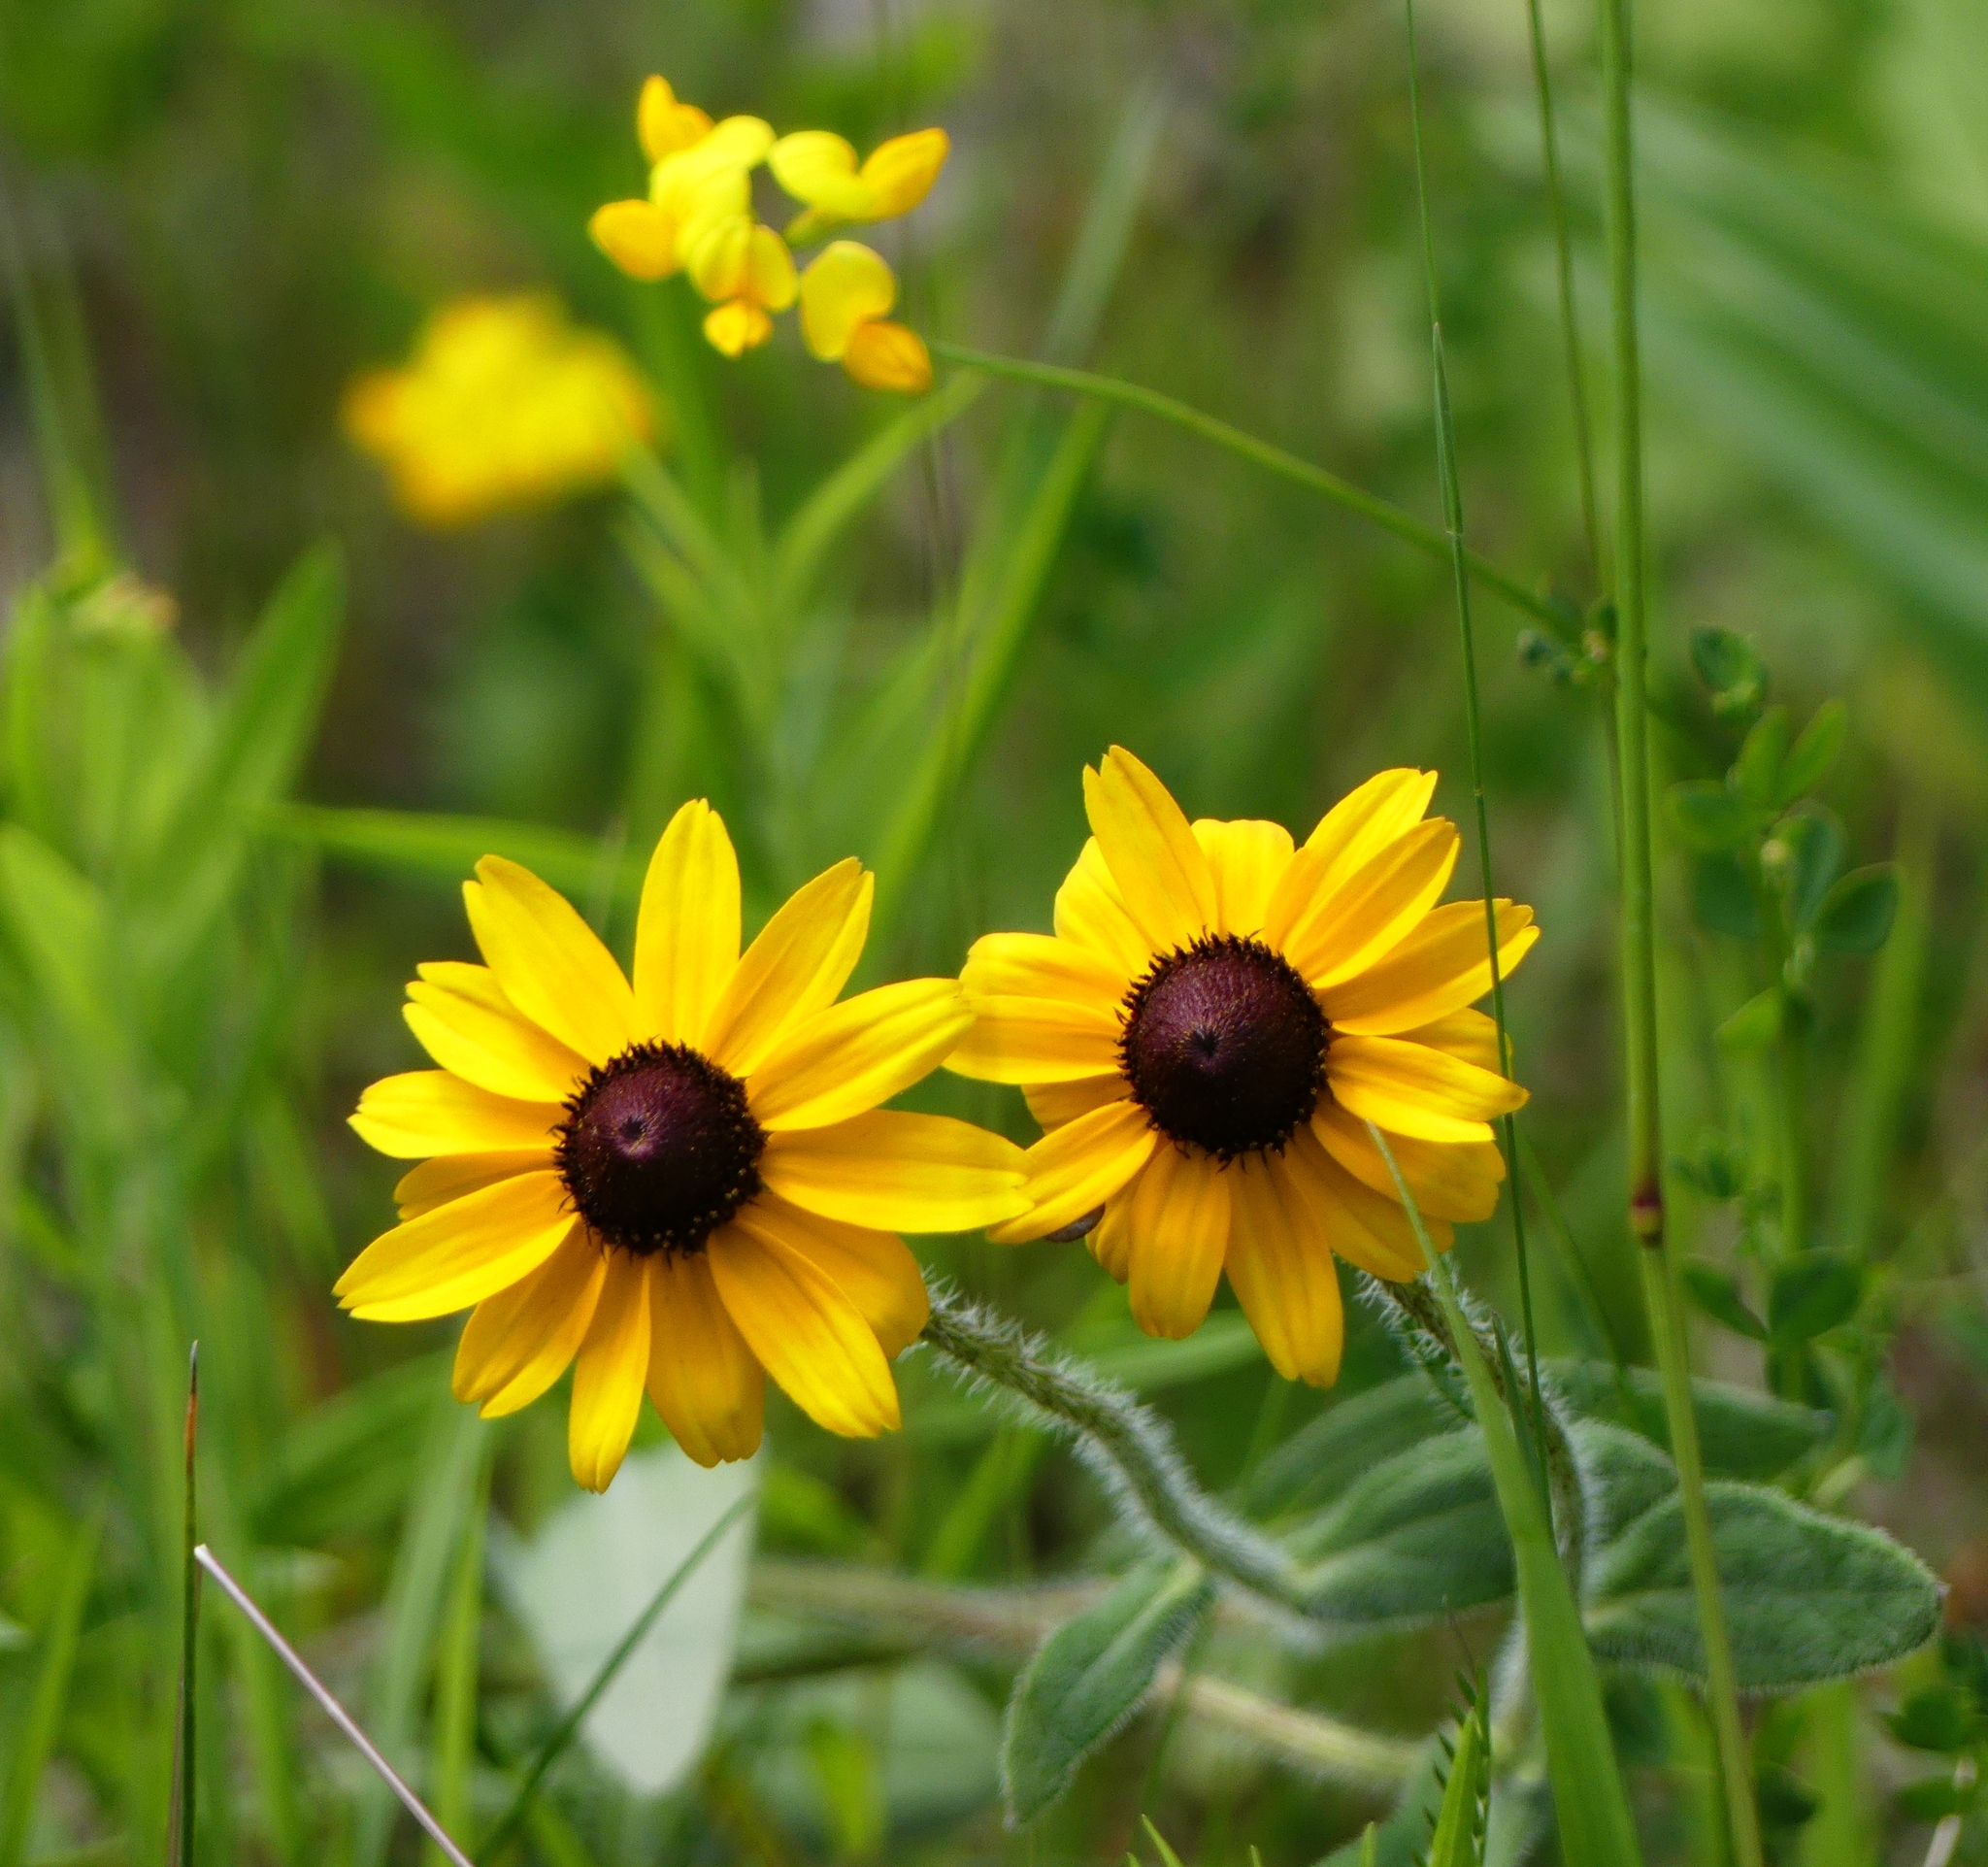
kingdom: Plantae
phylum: Tracheophyta
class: Magnoliopsida
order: Asterales
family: Asteraceae
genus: Rudbeckia
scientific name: Rudbeckia hirta
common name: Black-eyed-susan
